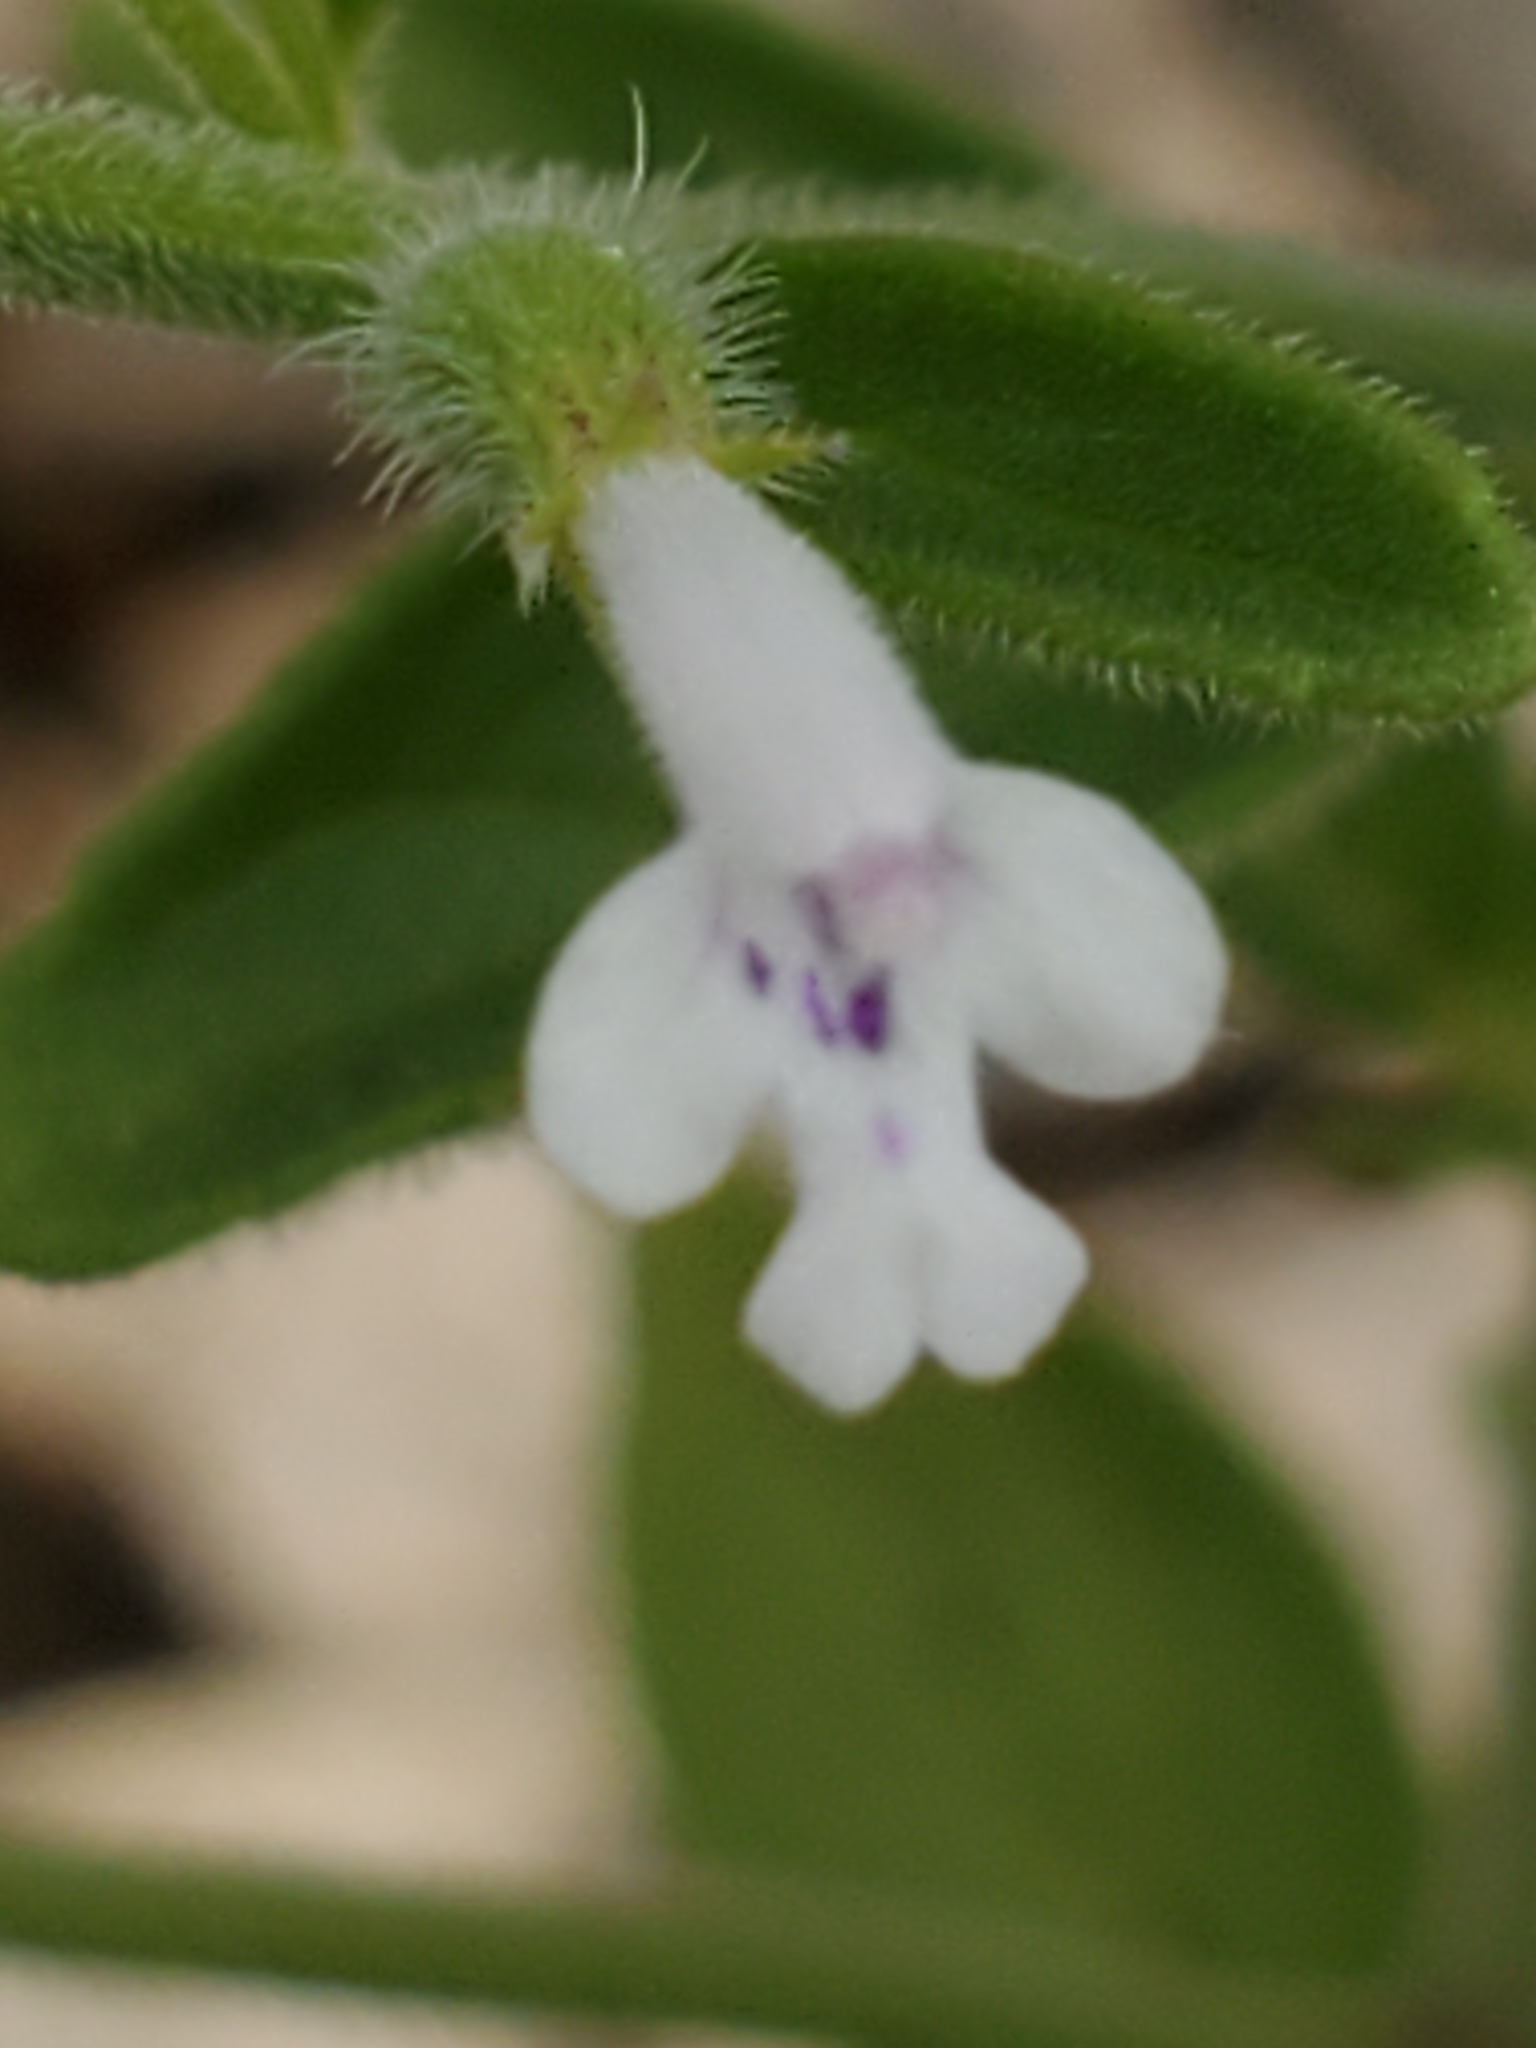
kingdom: Plantae
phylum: Tracheophyta
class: Magnoliopsida
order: Lamiales
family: Lamiaceae
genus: Hedeoma
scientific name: Hedeoma reverchonii
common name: Reverchon's false penny-royal
